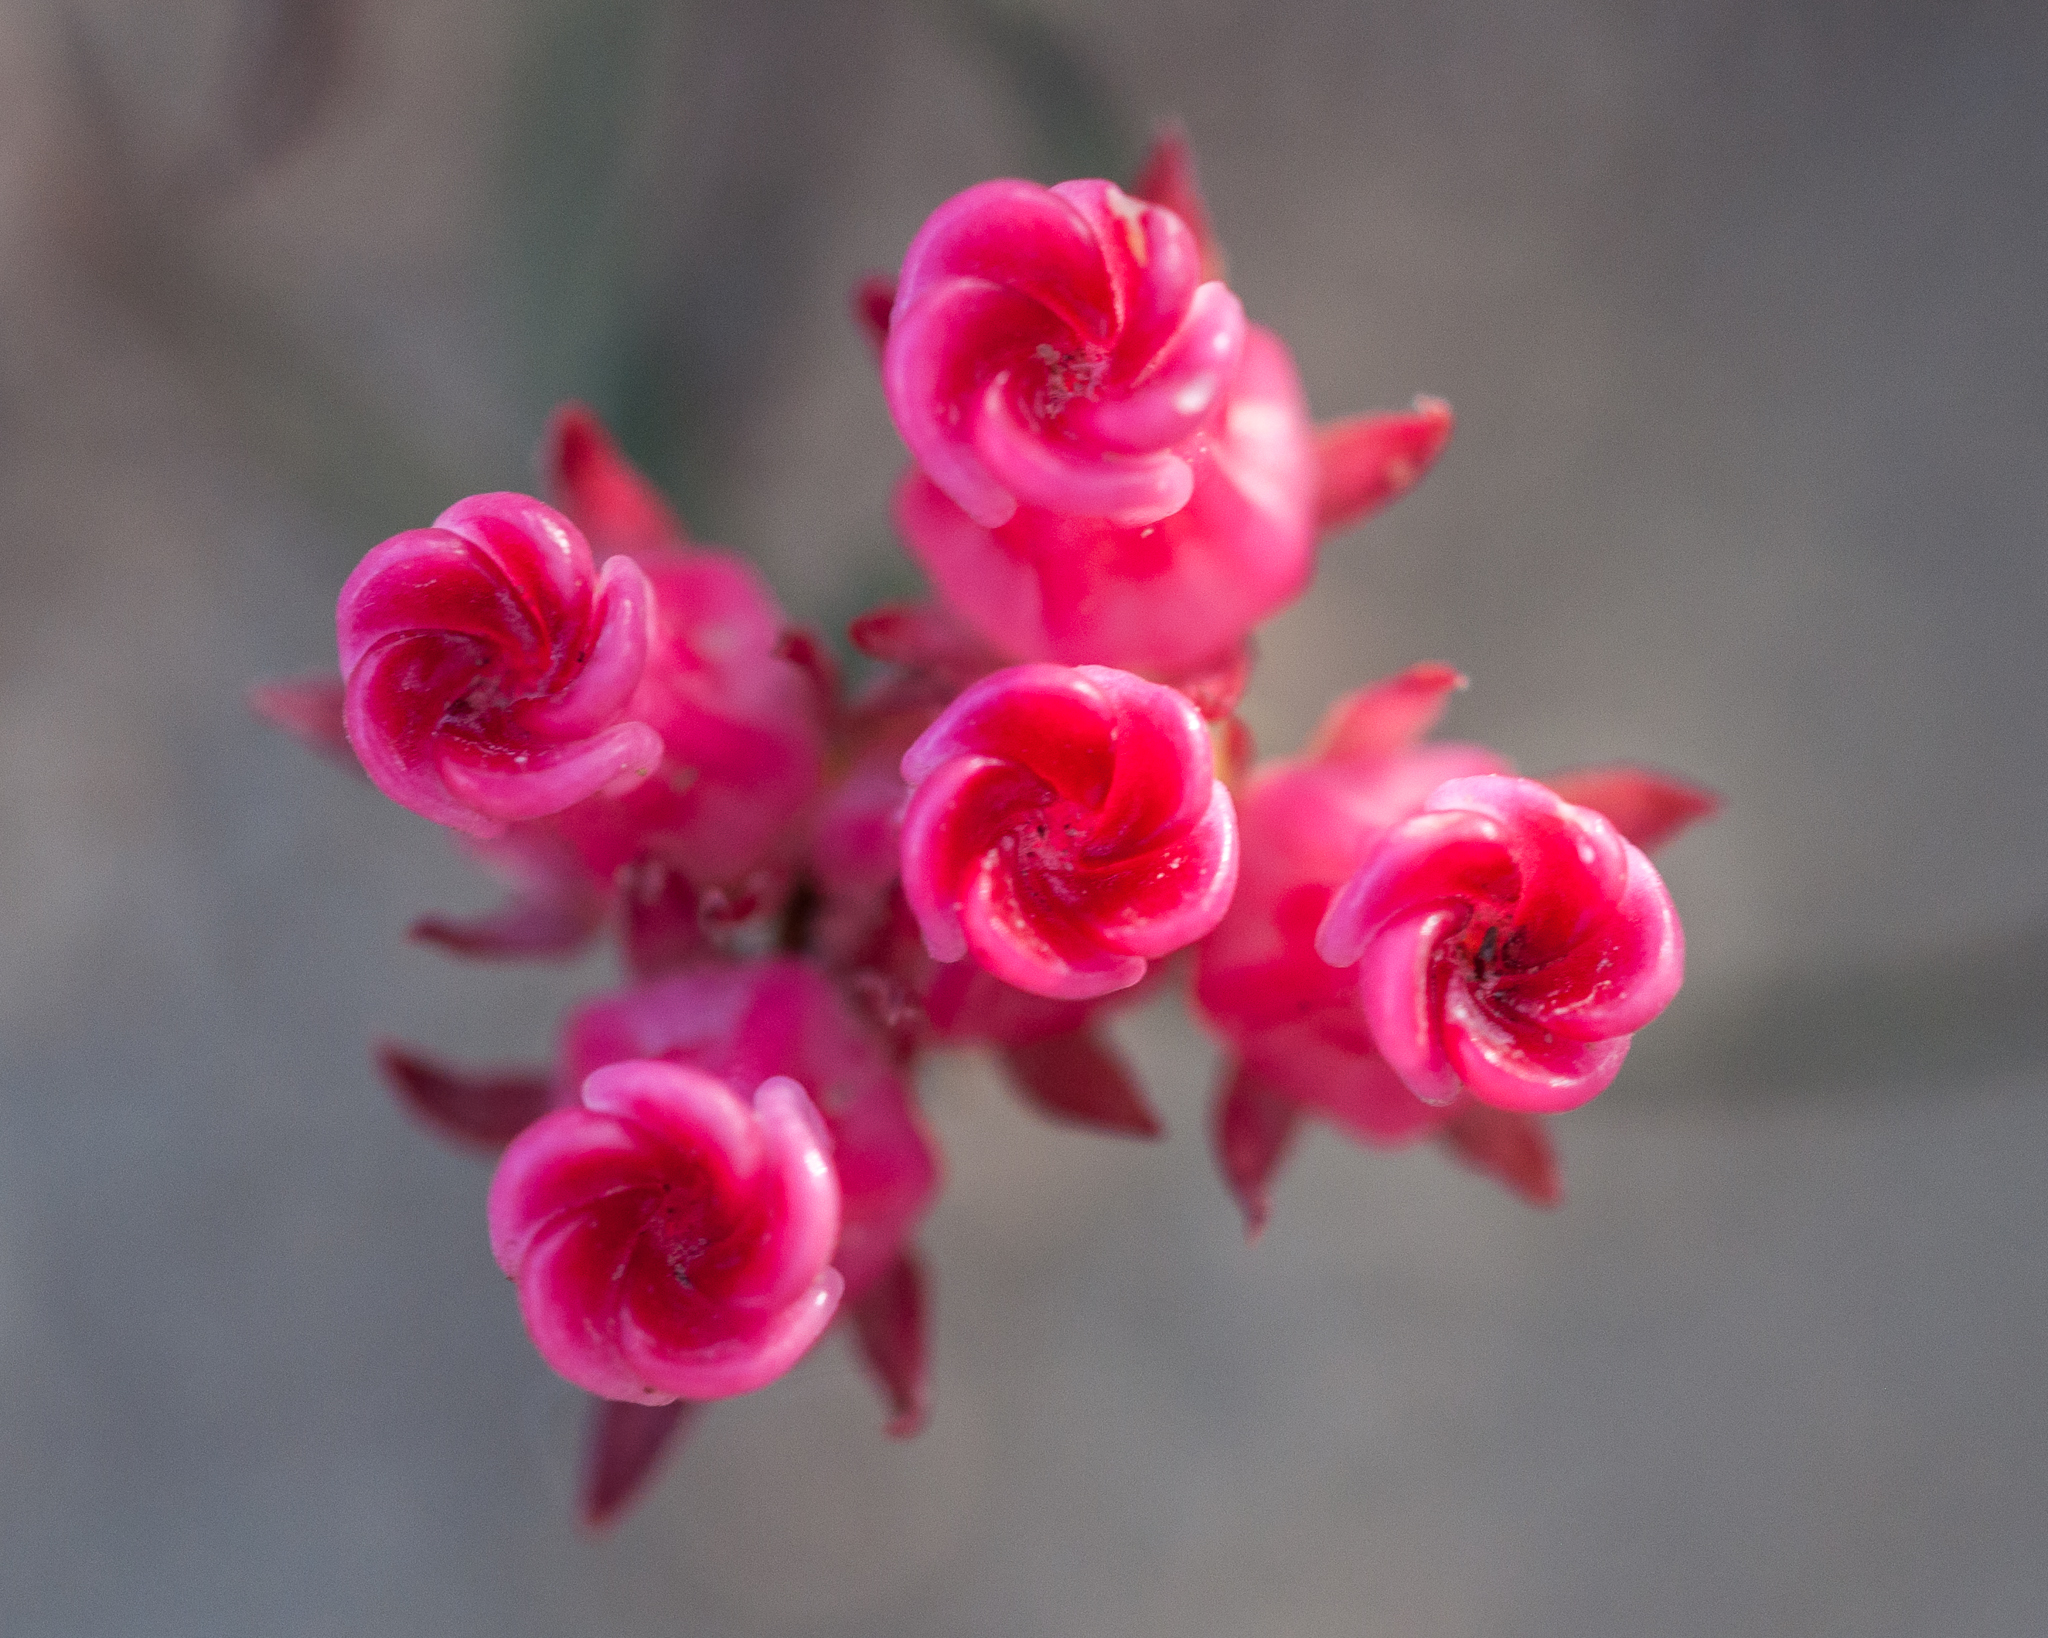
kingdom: Plantae
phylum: Tracheophyta
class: Magnoliopsida
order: Gentianales
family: Apocynaceae
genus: Microloma
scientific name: Microloma tenuifolium
